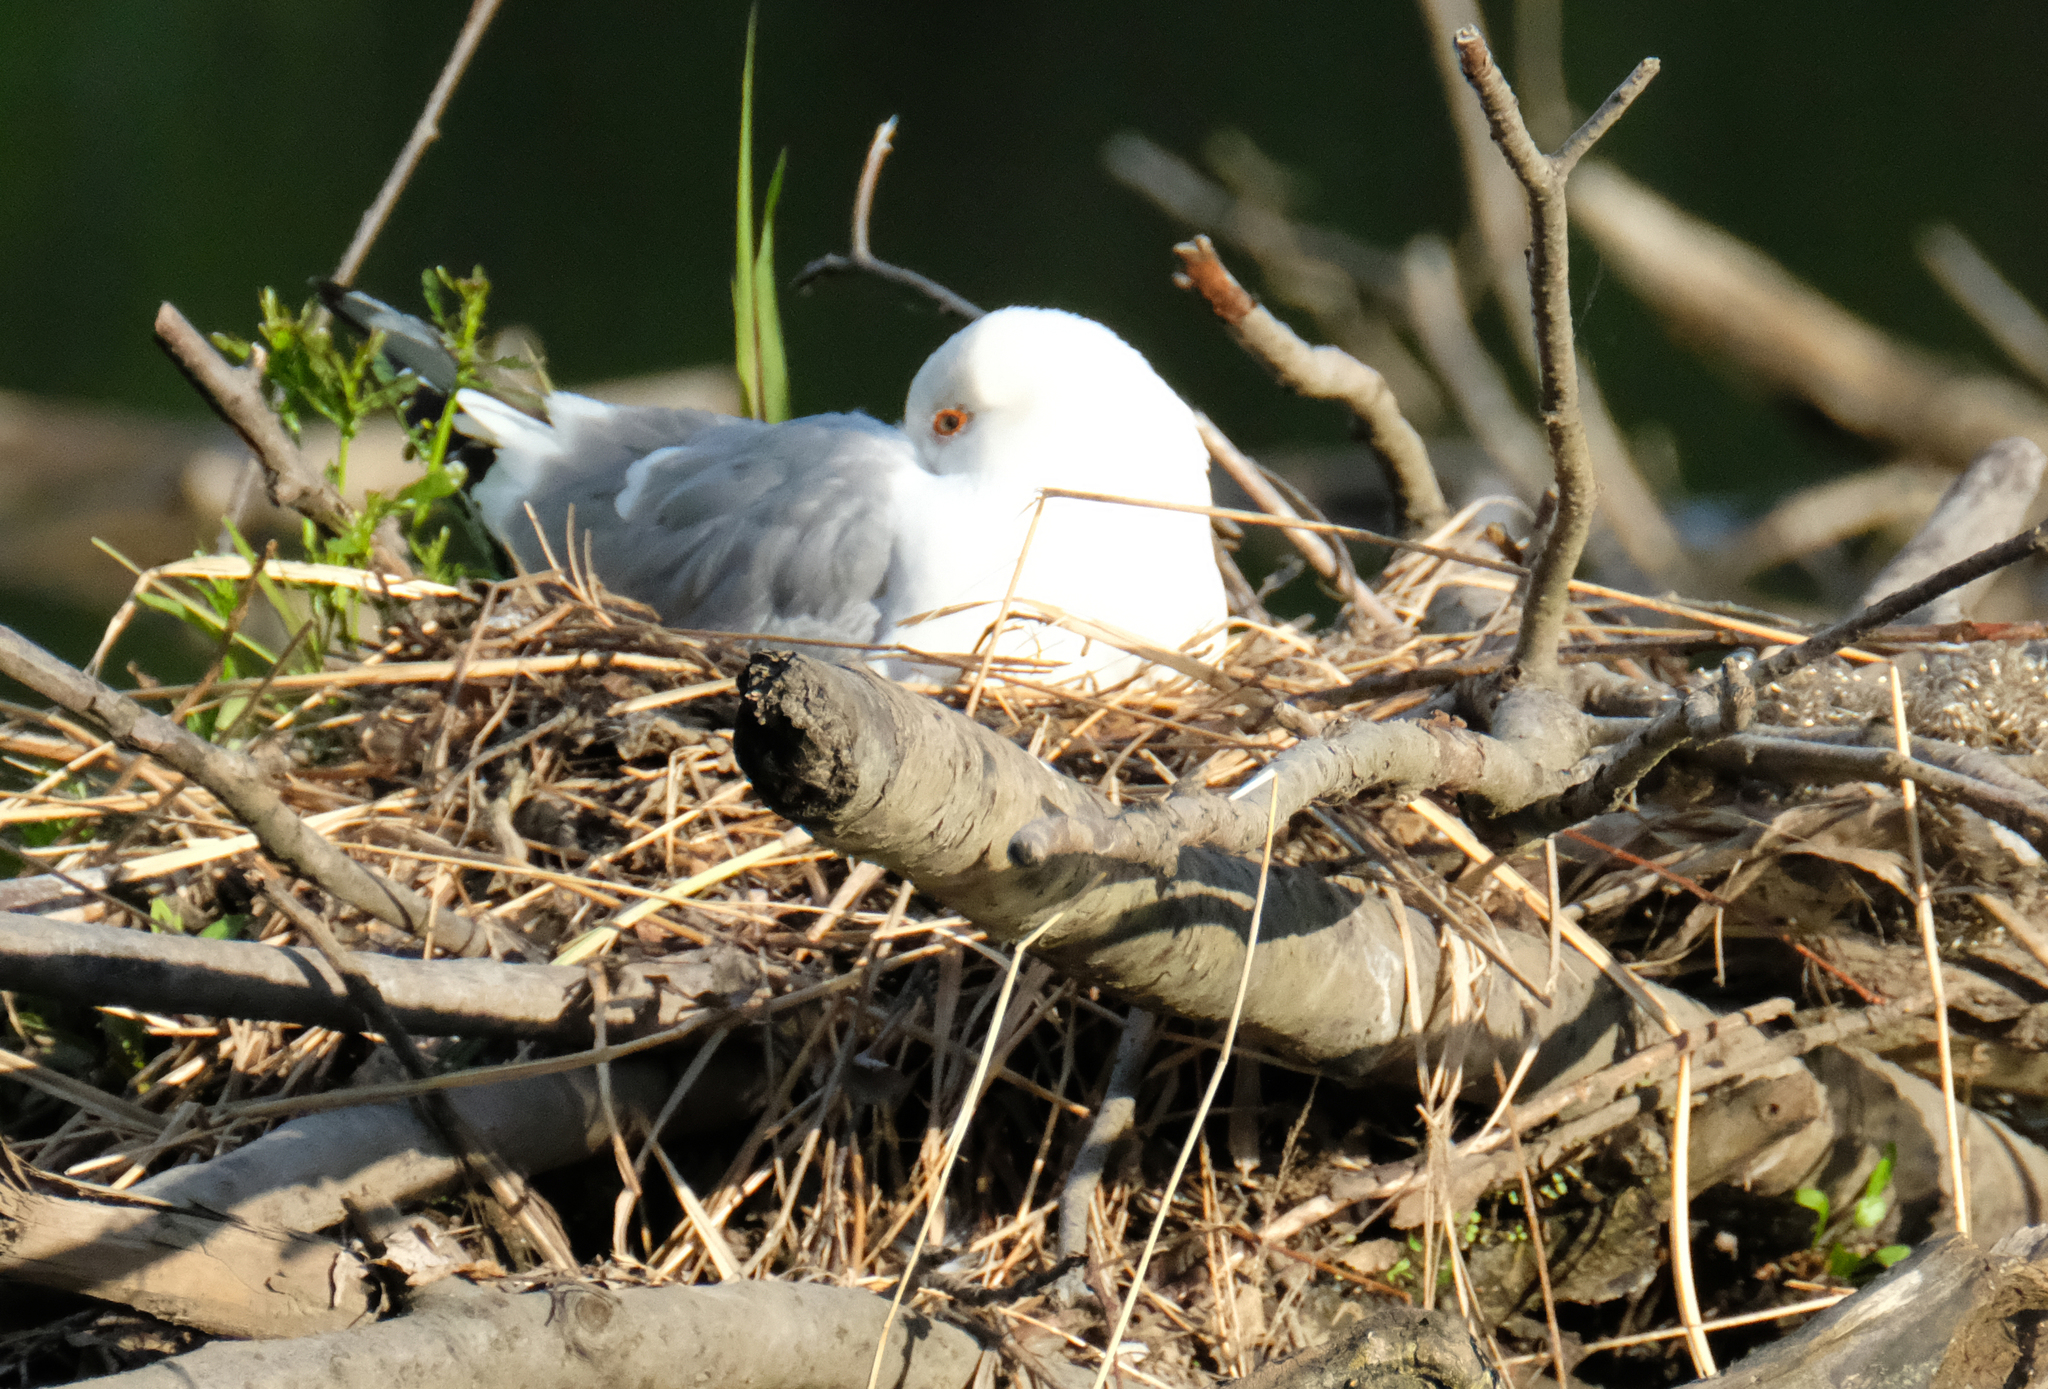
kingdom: Animalia
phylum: Chordata
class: Aves
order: Charadriiformes
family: Laridae
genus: Larus
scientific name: Larus brachyrhynchus
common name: Short-billed gull
